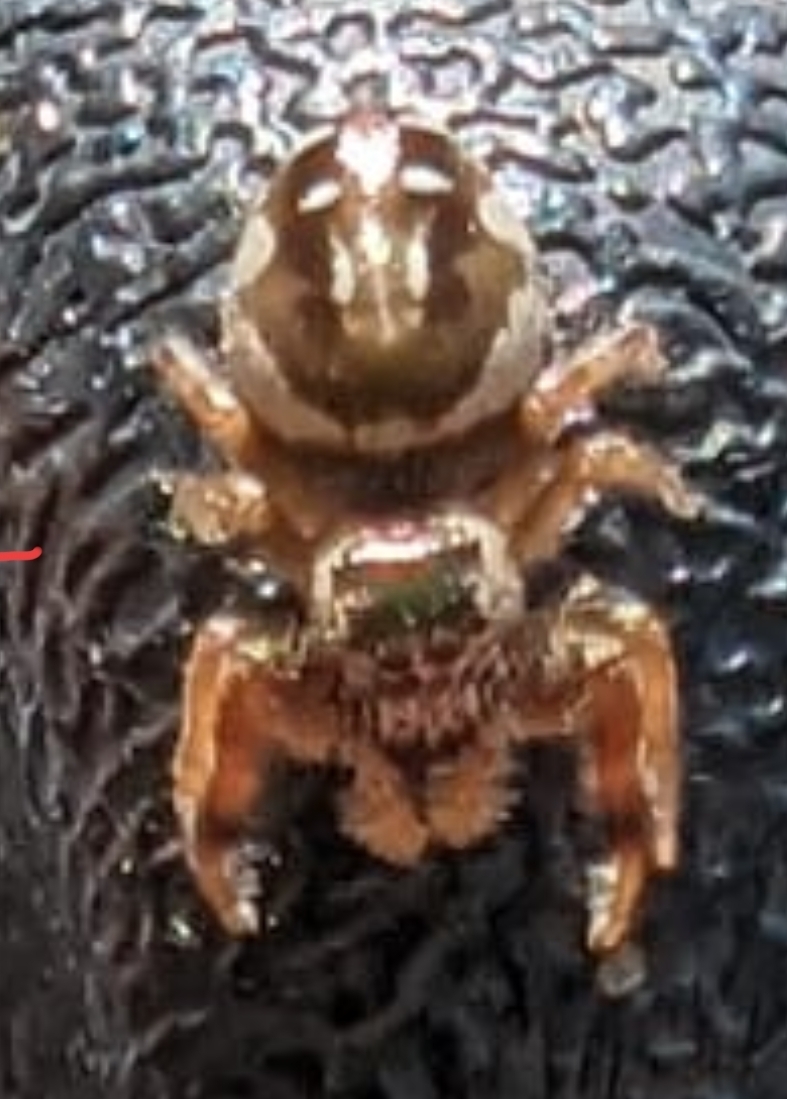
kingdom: Animalia
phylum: Arthropoda
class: Arachnida
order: Araneae
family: Salticidae
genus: Paraphidippus
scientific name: Paraphidippus aurantius
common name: Jumping spiders
